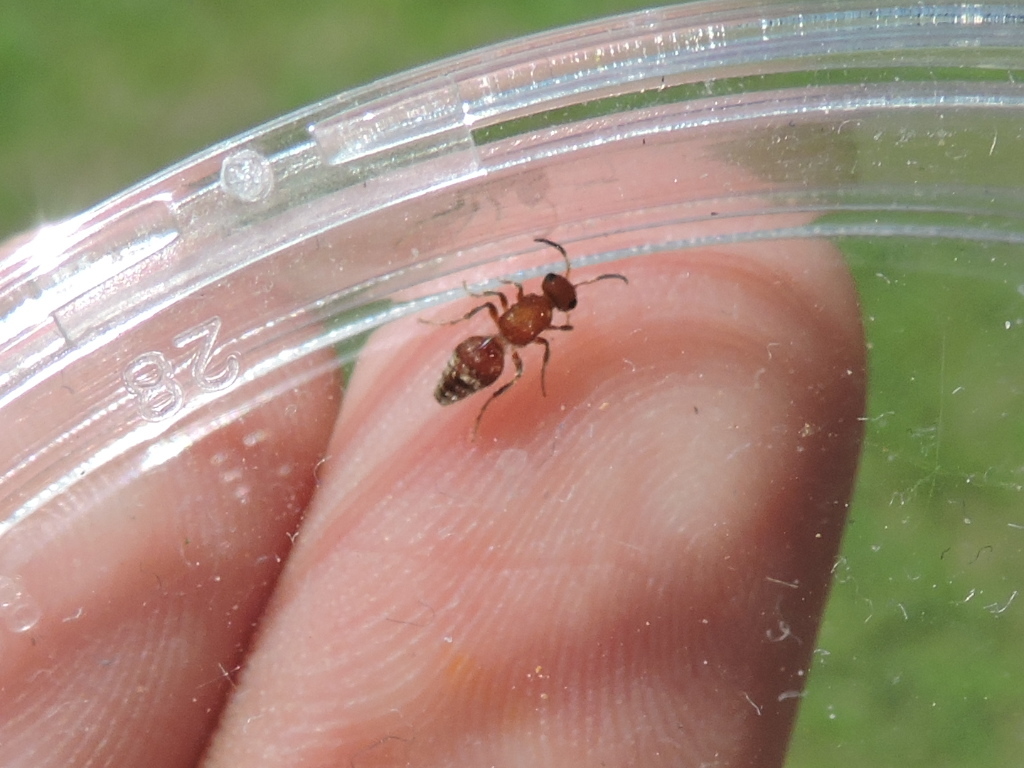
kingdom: Animalia
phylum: Arthropoda
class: Insecta
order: Hymenoptera
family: Mutillidae
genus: Timulla
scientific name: Timulla
